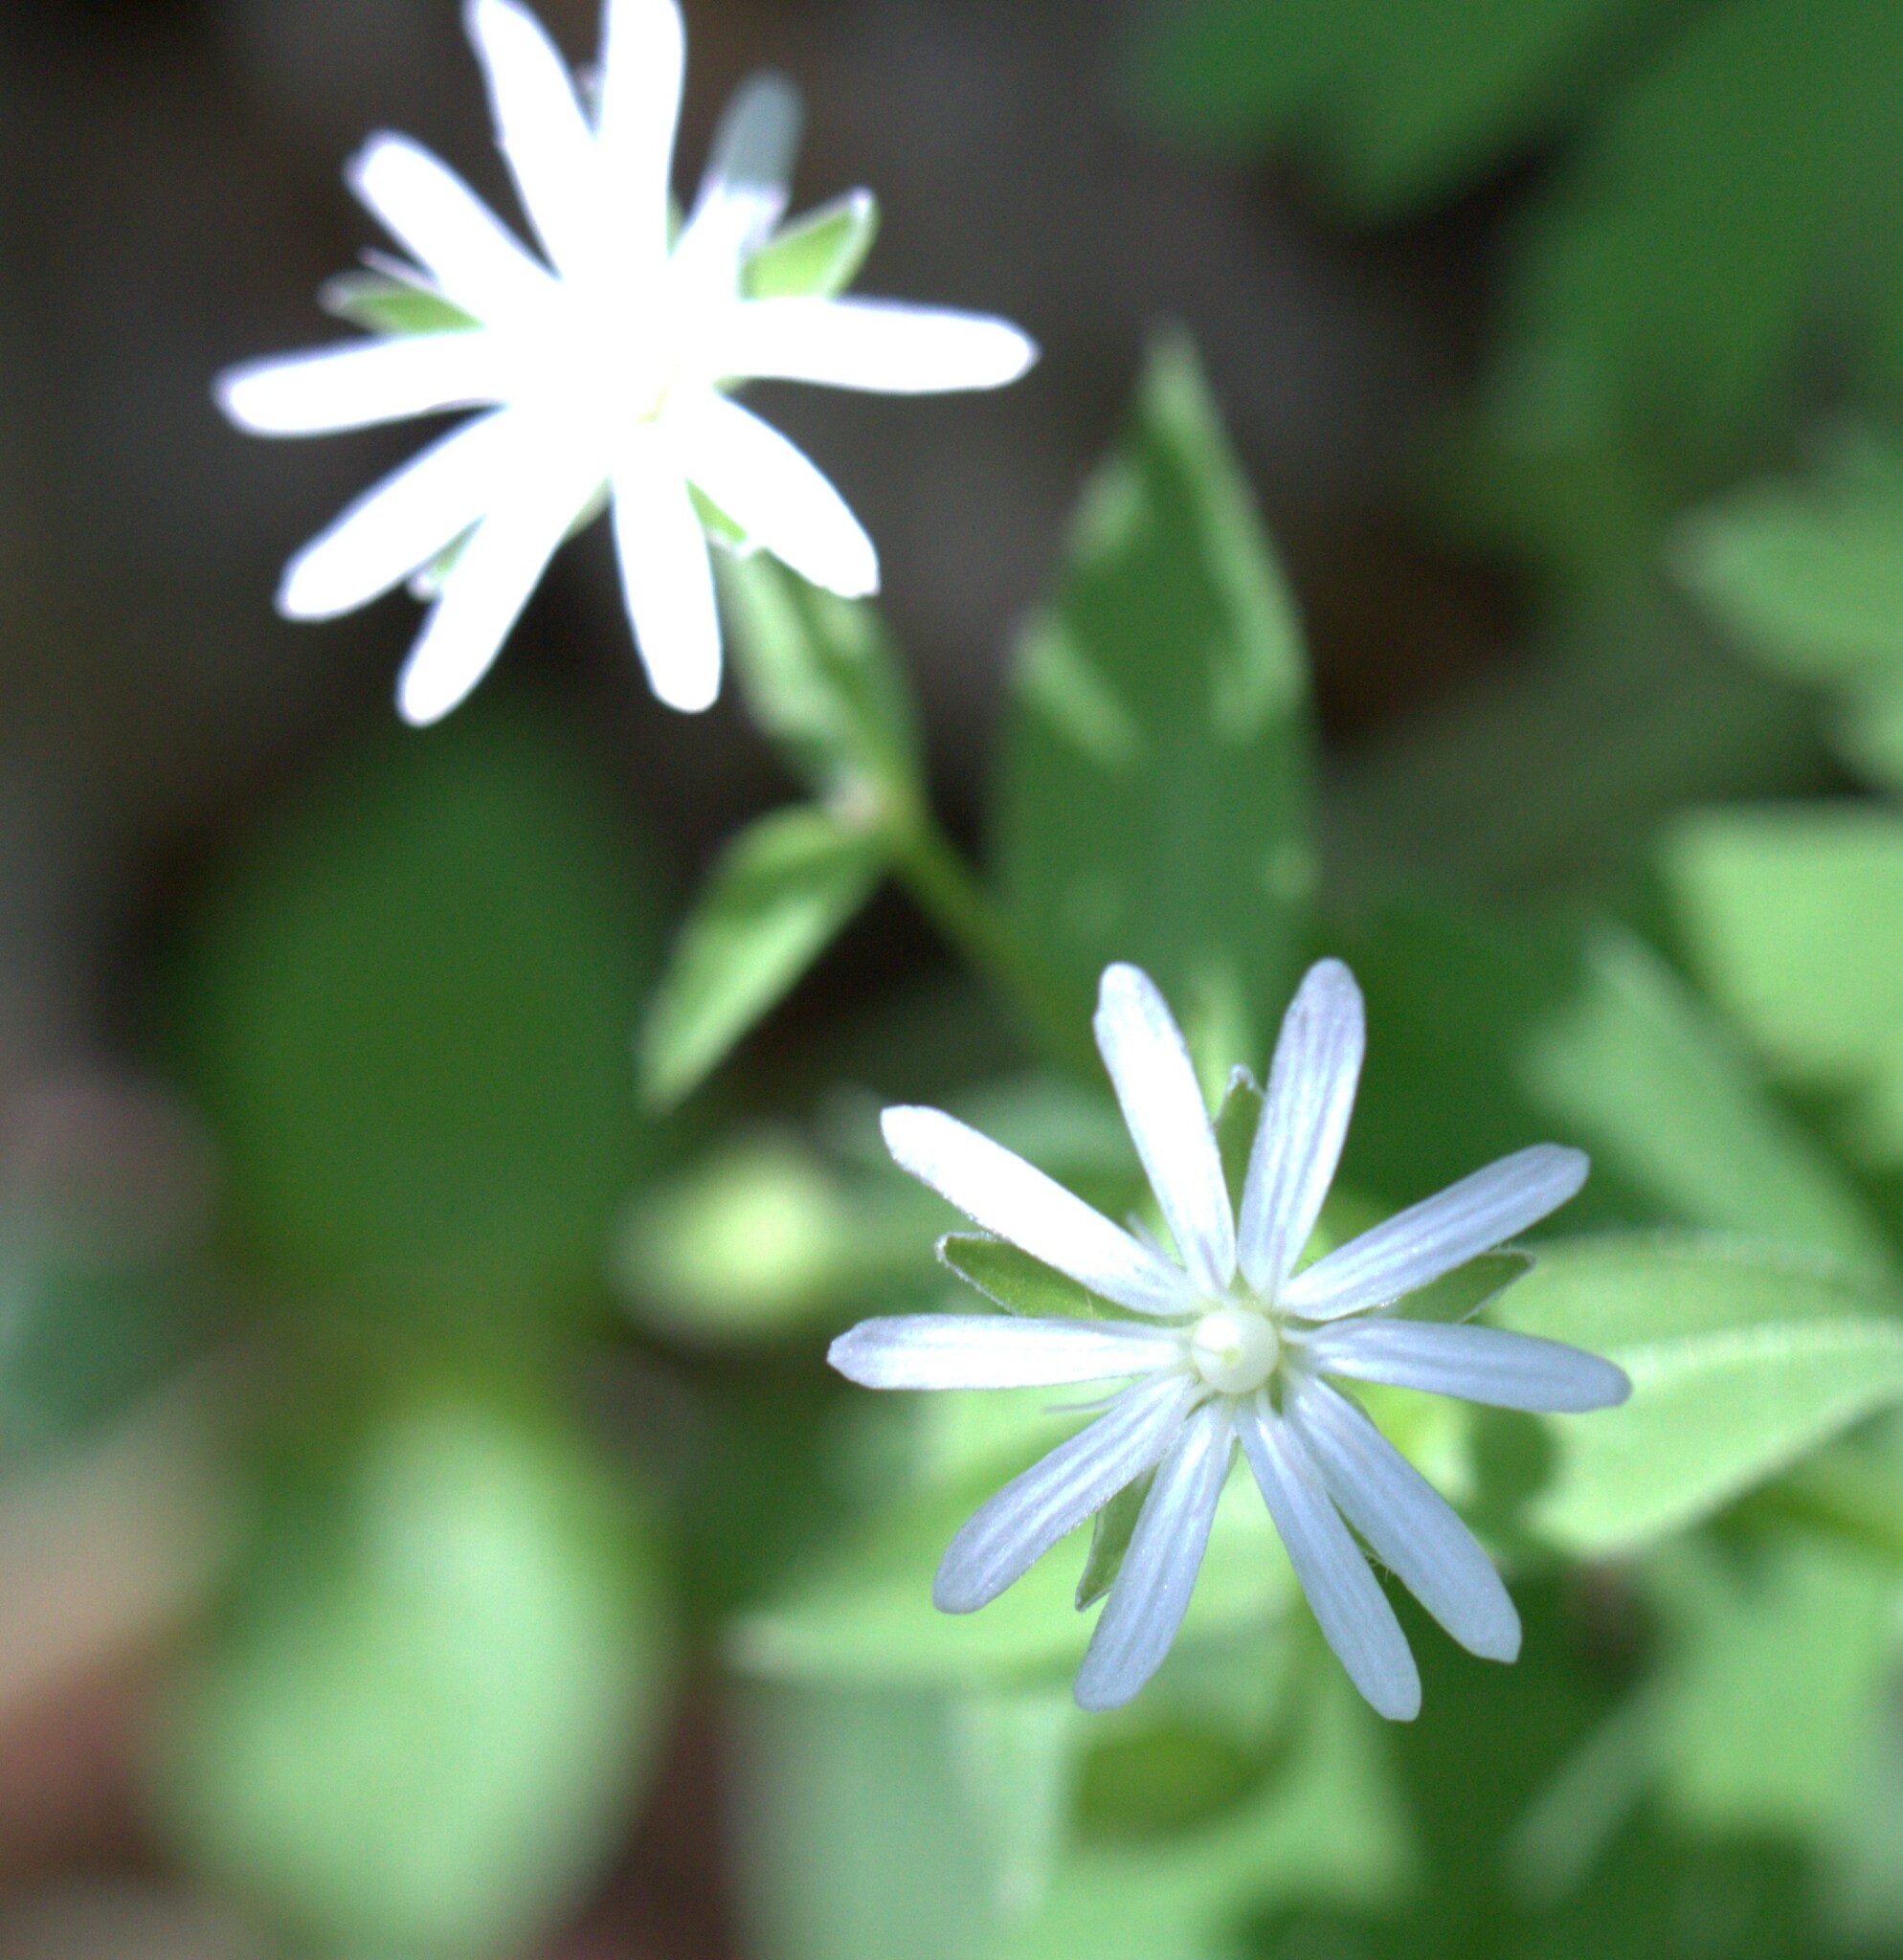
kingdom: Plantae
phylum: Tracheophyta
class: Magnoliopsida
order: Caryophyllales
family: Caryophyllaceae
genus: Stellaria
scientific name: Stellaria pubera
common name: Star chickweed
